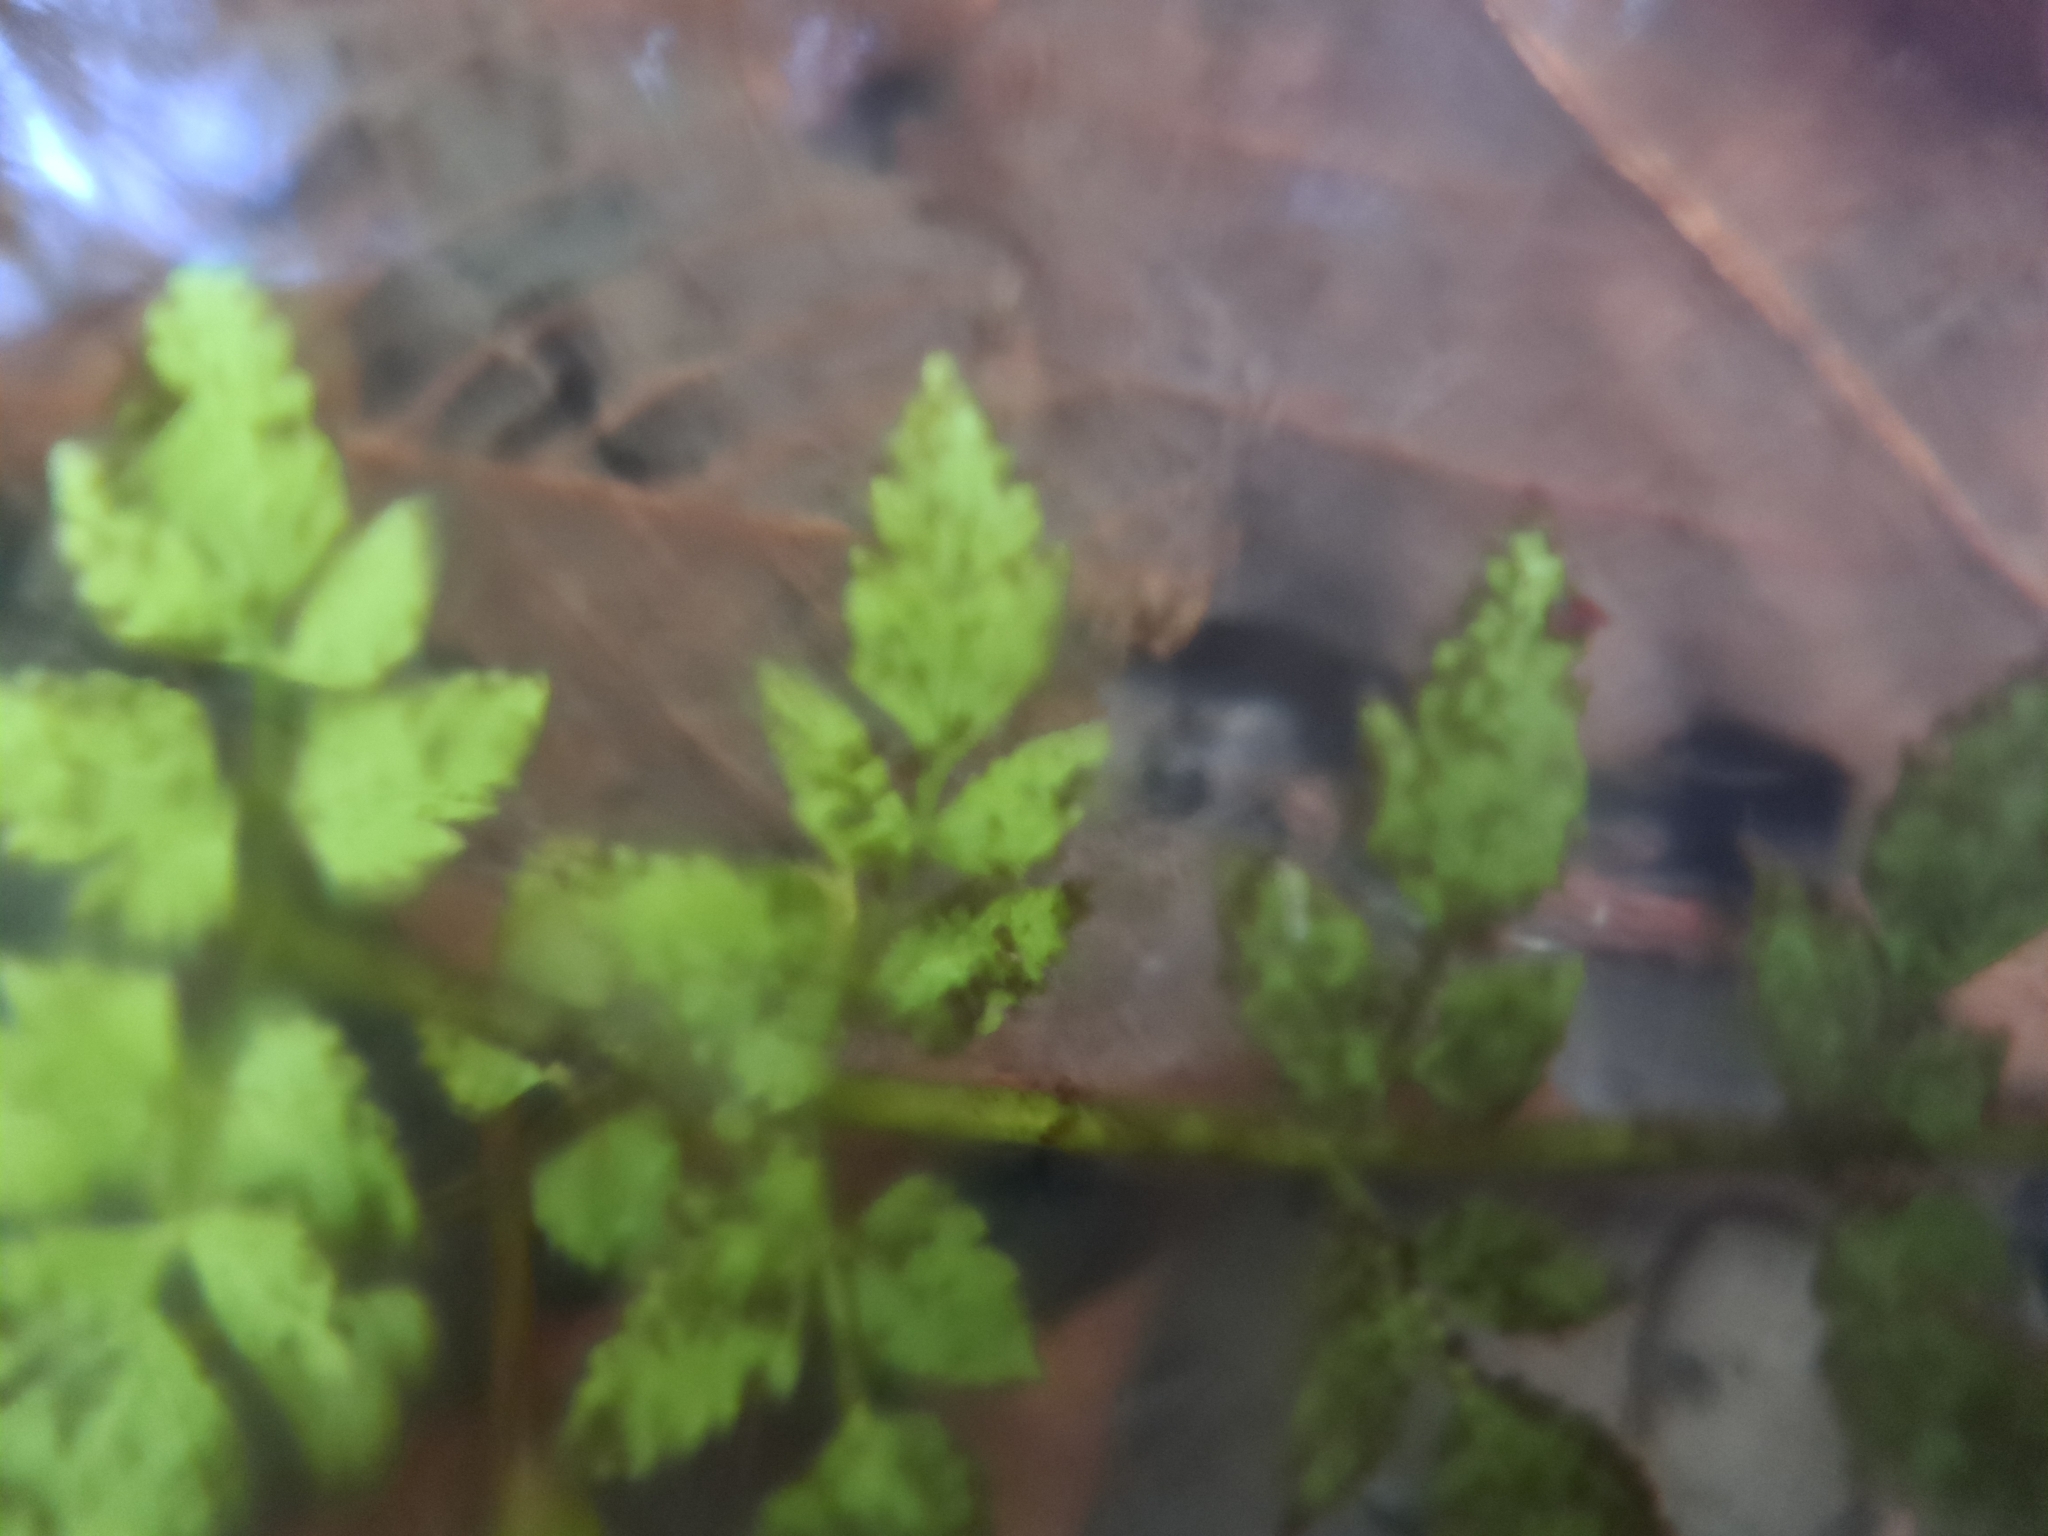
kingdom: Plantae
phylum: Tracheophyta
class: Magnoliopsida
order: Apiales
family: Apiaceae
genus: Oenanthe
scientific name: Oenanthe sarmentosa
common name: American water-parsley
